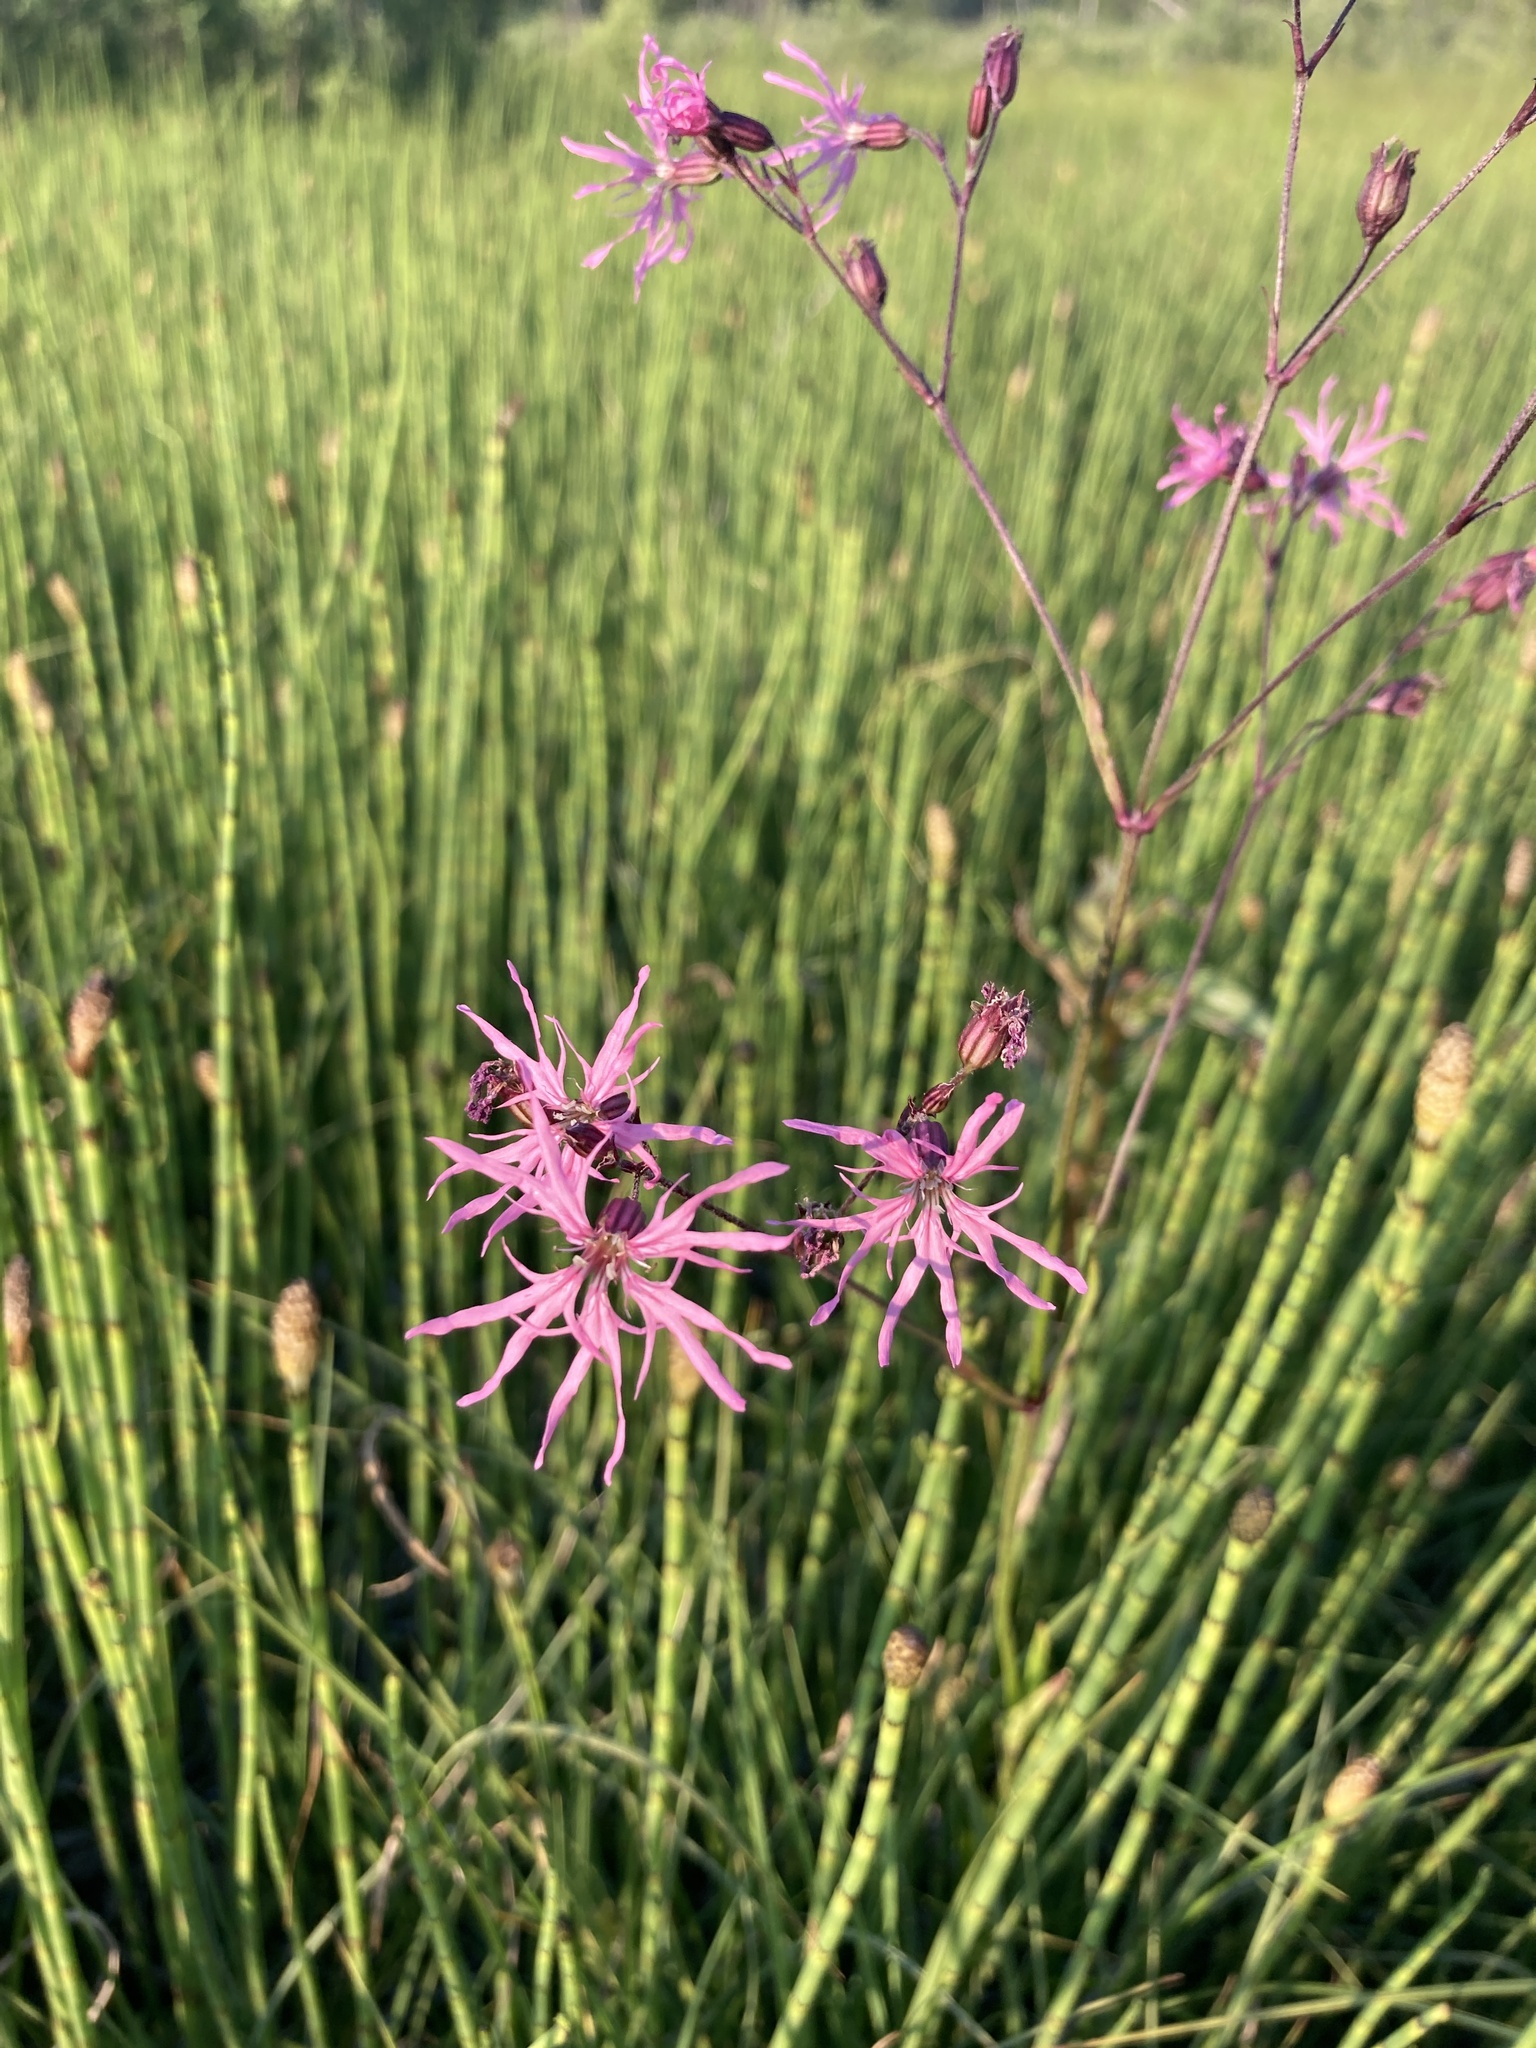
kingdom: Plantae
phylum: Tracheophyta
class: Magnoliopsida
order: Caryophyllales
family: Caryophyllaceae
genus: Silene
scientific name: Silene flos-cuculi
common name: Ragged-robin
